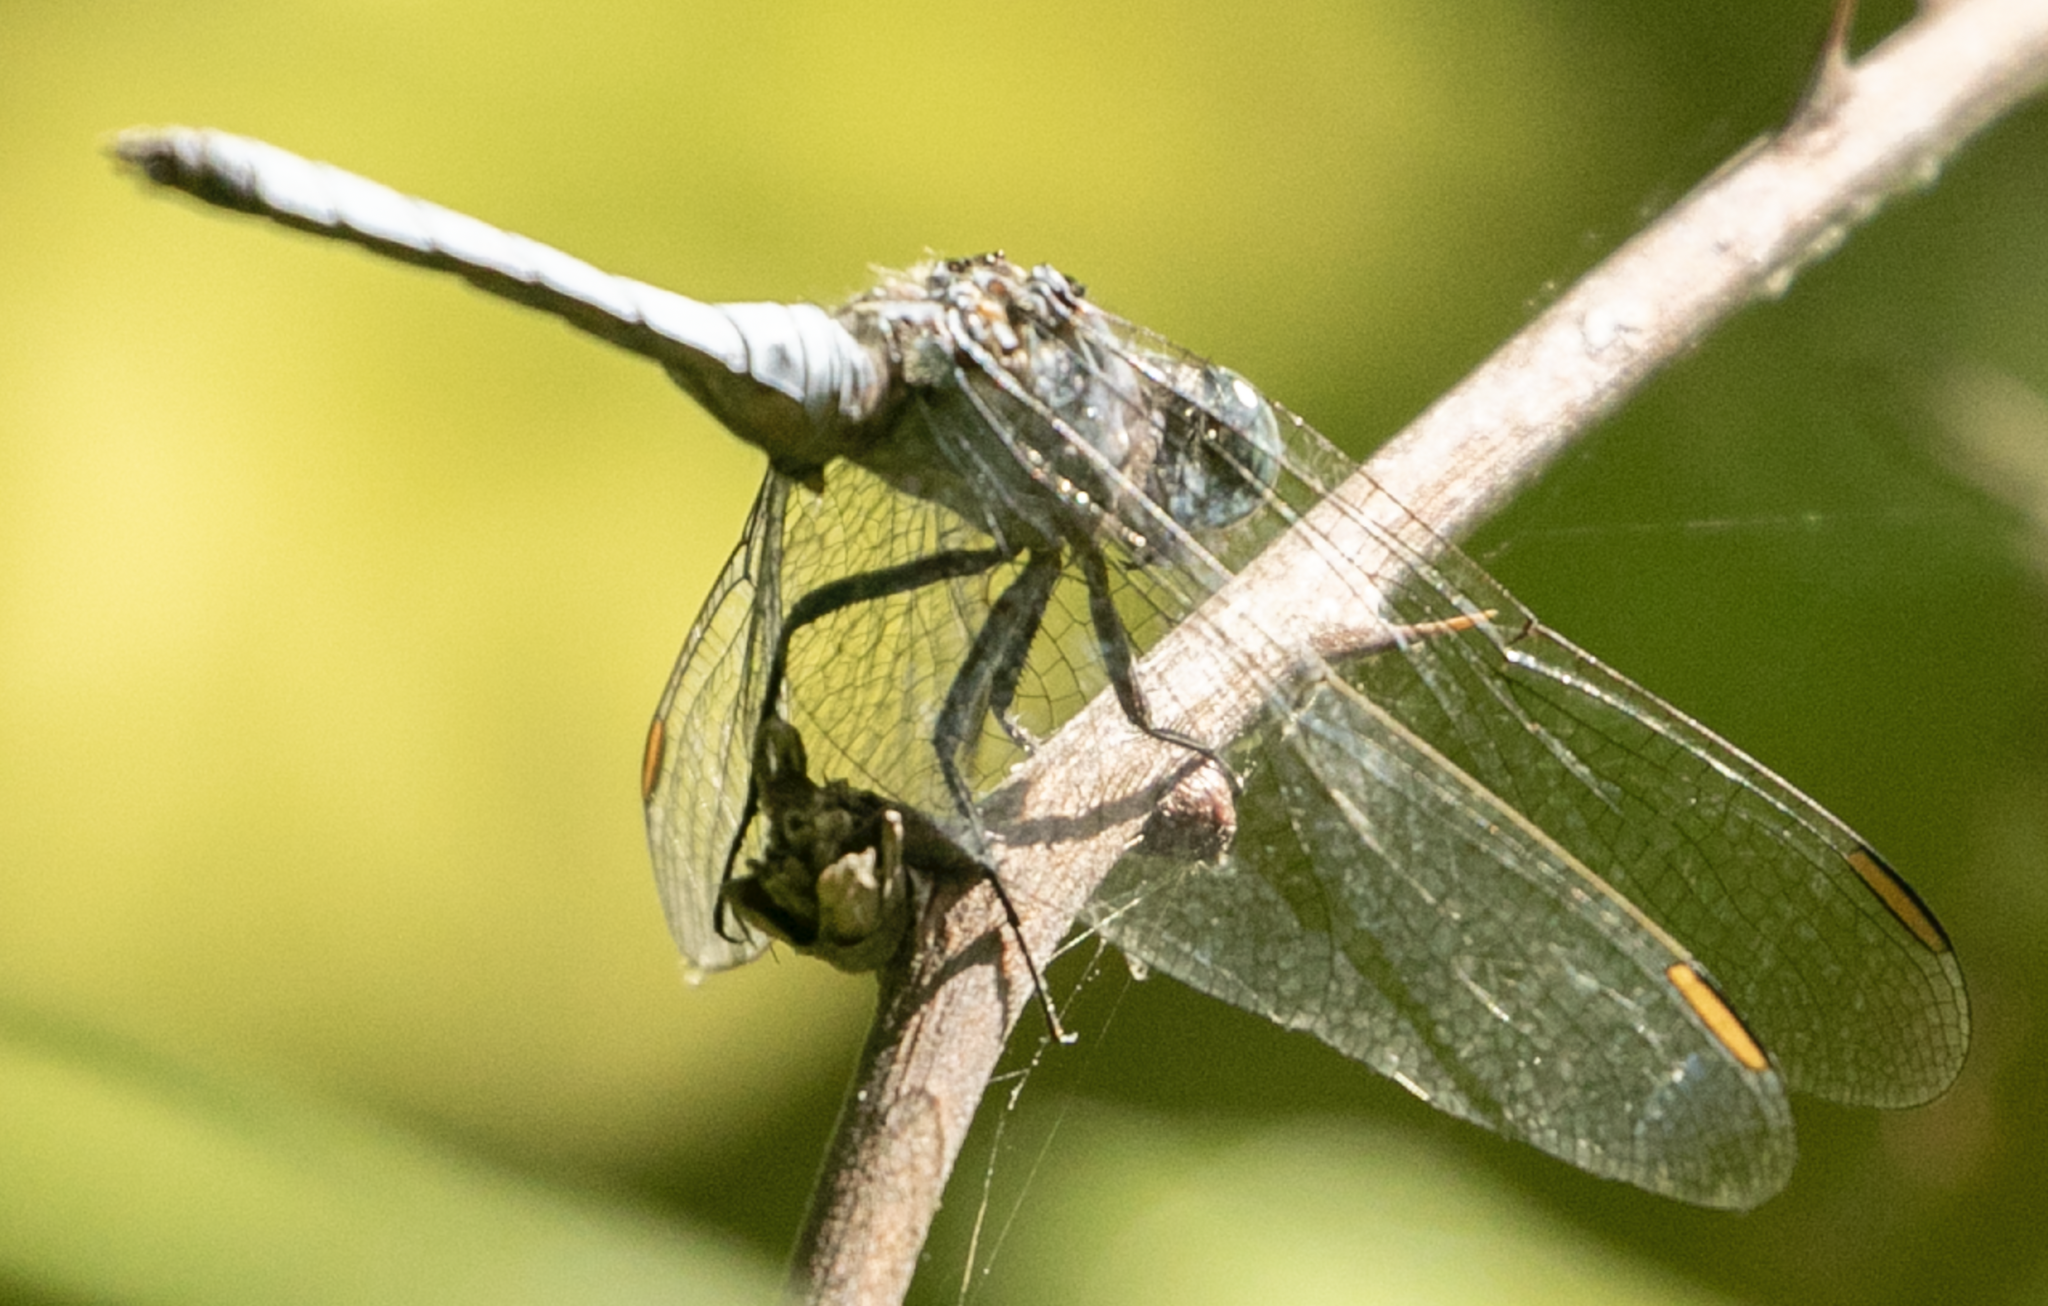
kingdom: Animalia
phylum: Arthropoda
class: Insecta
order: Odonata
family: Libellulidae
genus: Orthetrum
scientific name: Orthetrum coerulescens
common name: Keeled skimmer
